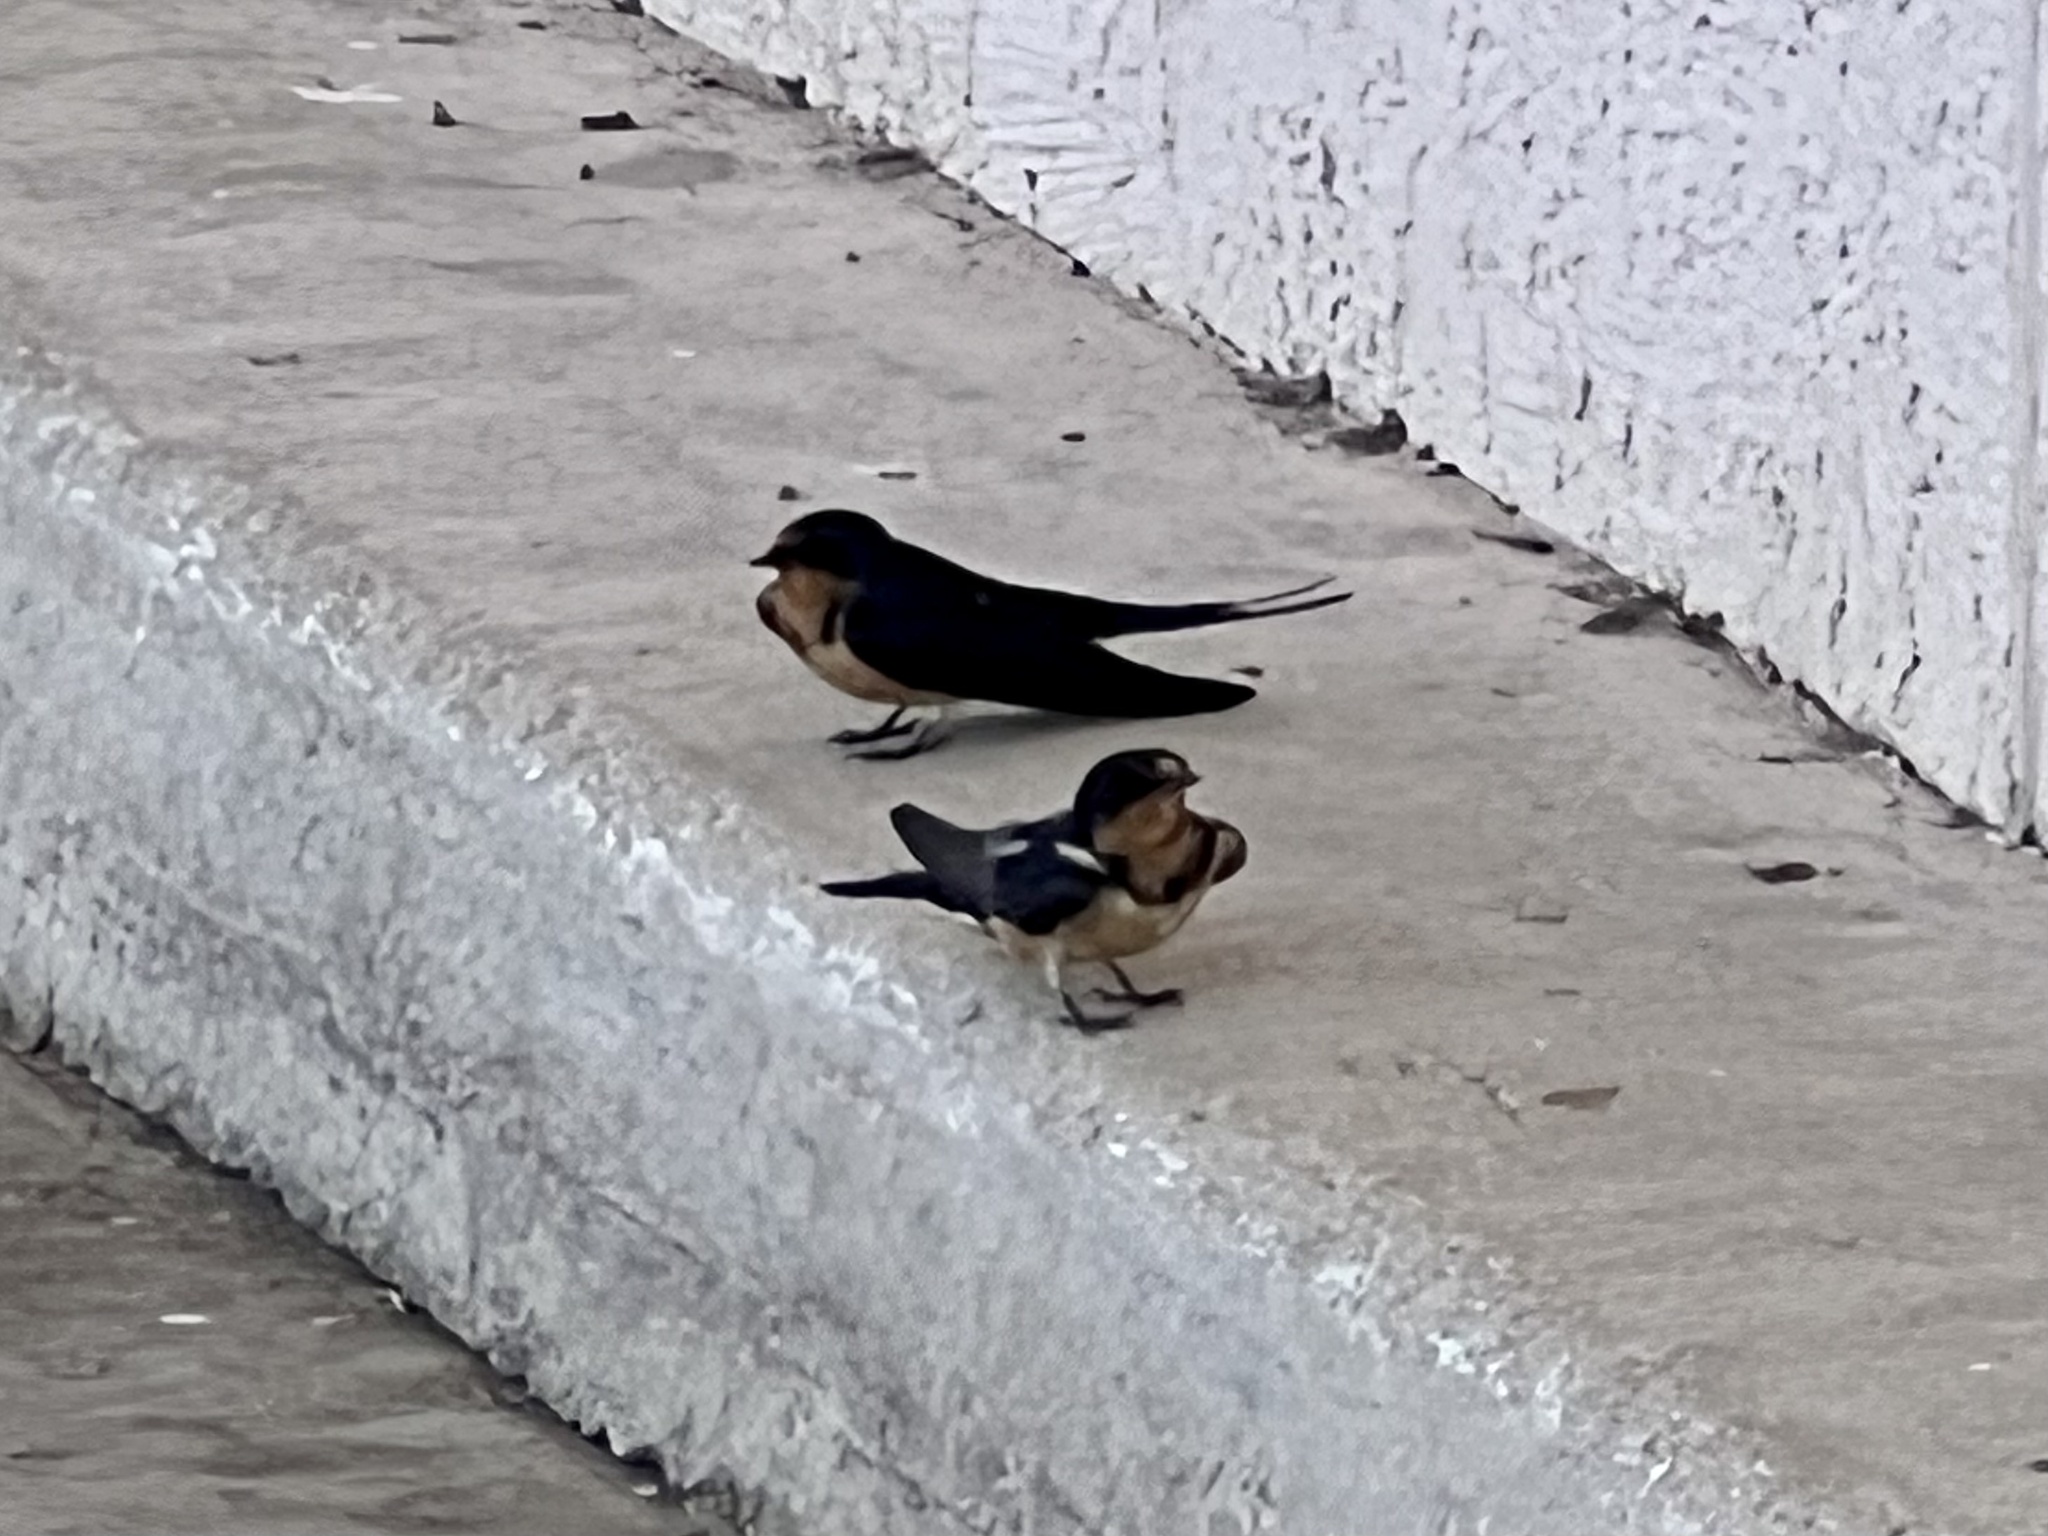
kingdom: Animalia
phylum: Chordata
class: Aves
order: Passeriformes
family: Hirundinidae
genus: Hirundo
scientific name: Hirundo rustica
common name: Barn swallow
